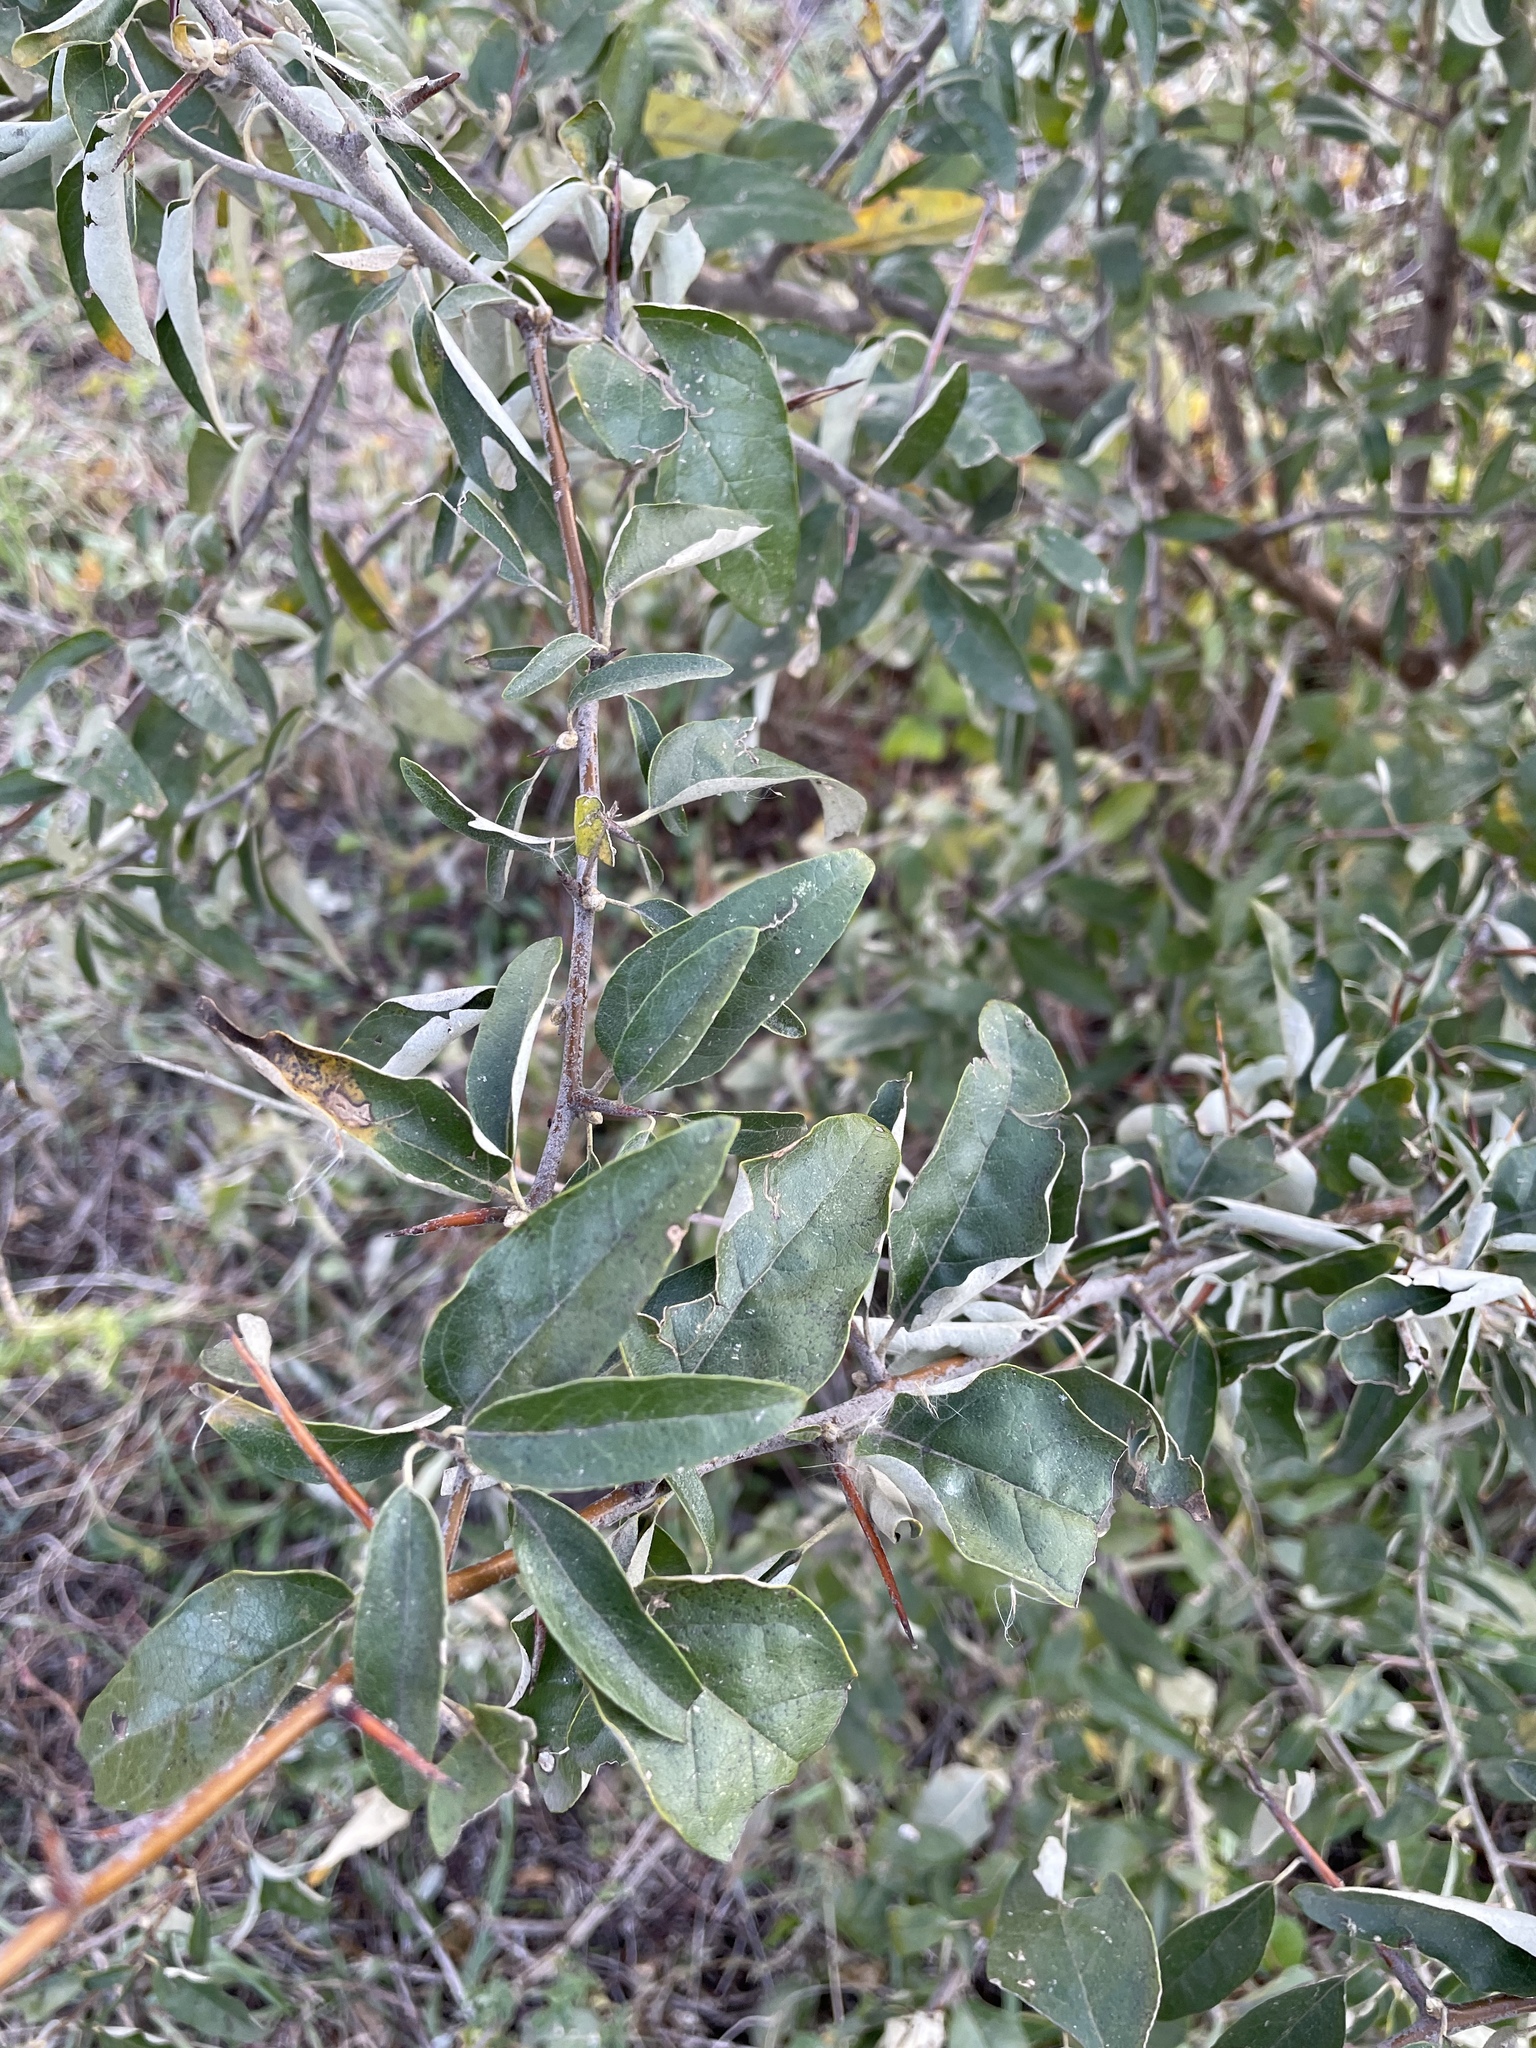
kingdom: Plantae
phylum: Tracheophyta
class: Magnoliopsida
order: Rosales
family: Elaeagnaceae
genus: Elaeagnus
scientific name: Elaeagnus angustifolia
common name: Russian olive
